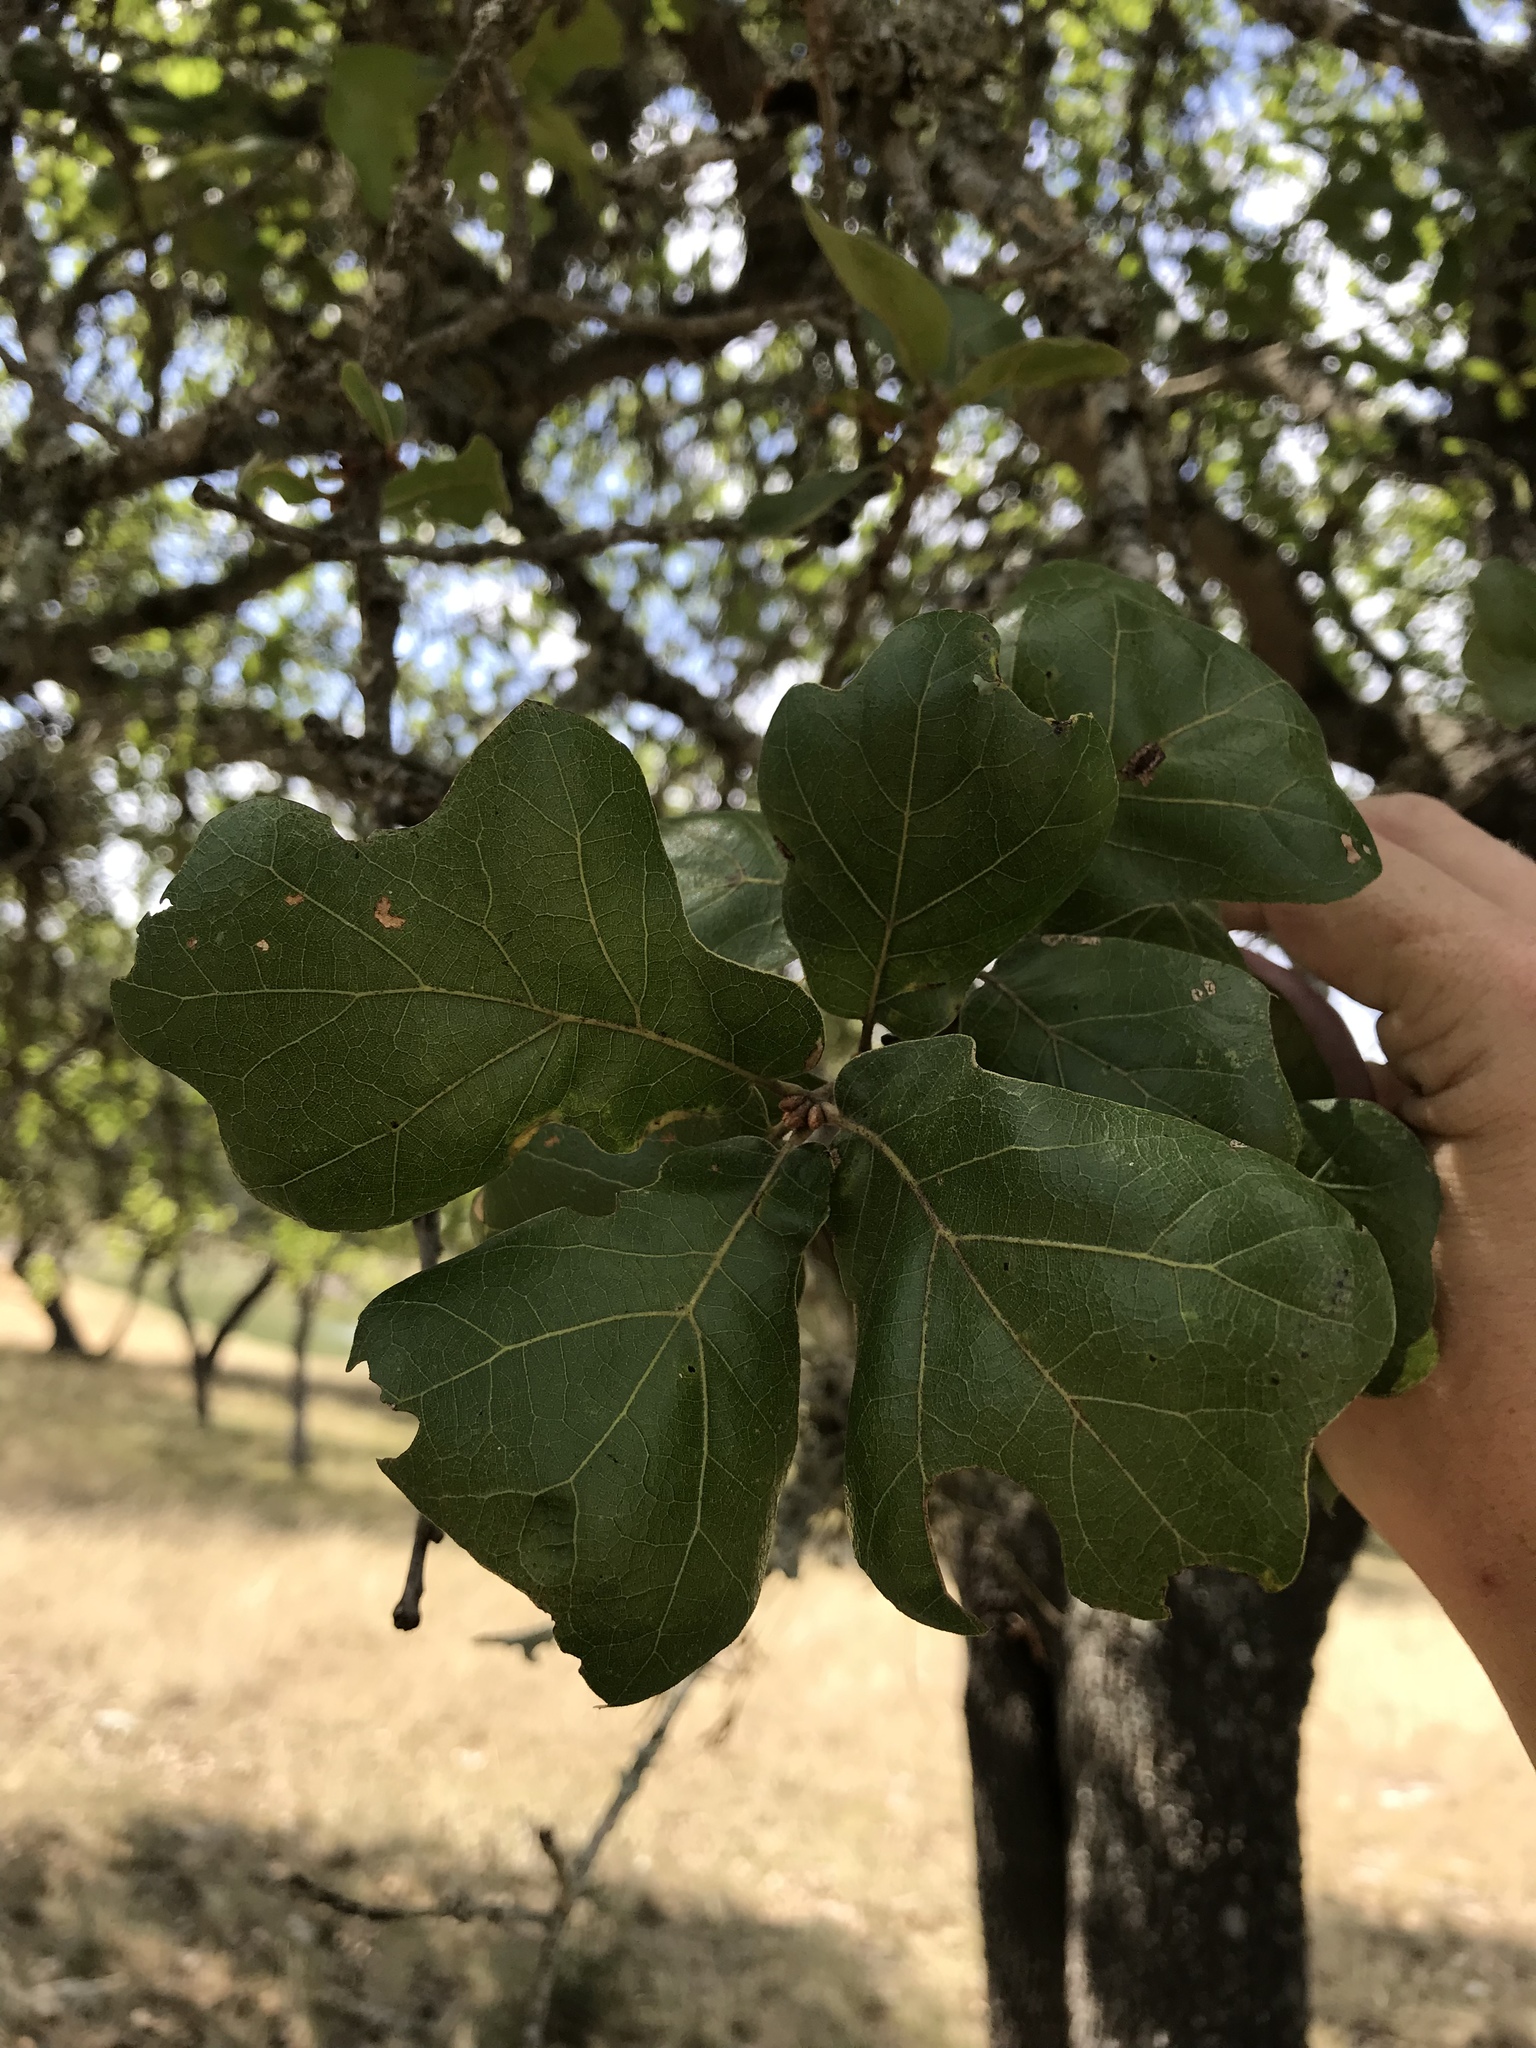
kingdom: Plantae
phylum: Tracheophyta
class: Magnoliopsida
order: Fagales
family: Fagaceae
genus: Quercus
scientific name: Quercus marilandica
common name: Blackjack oak
